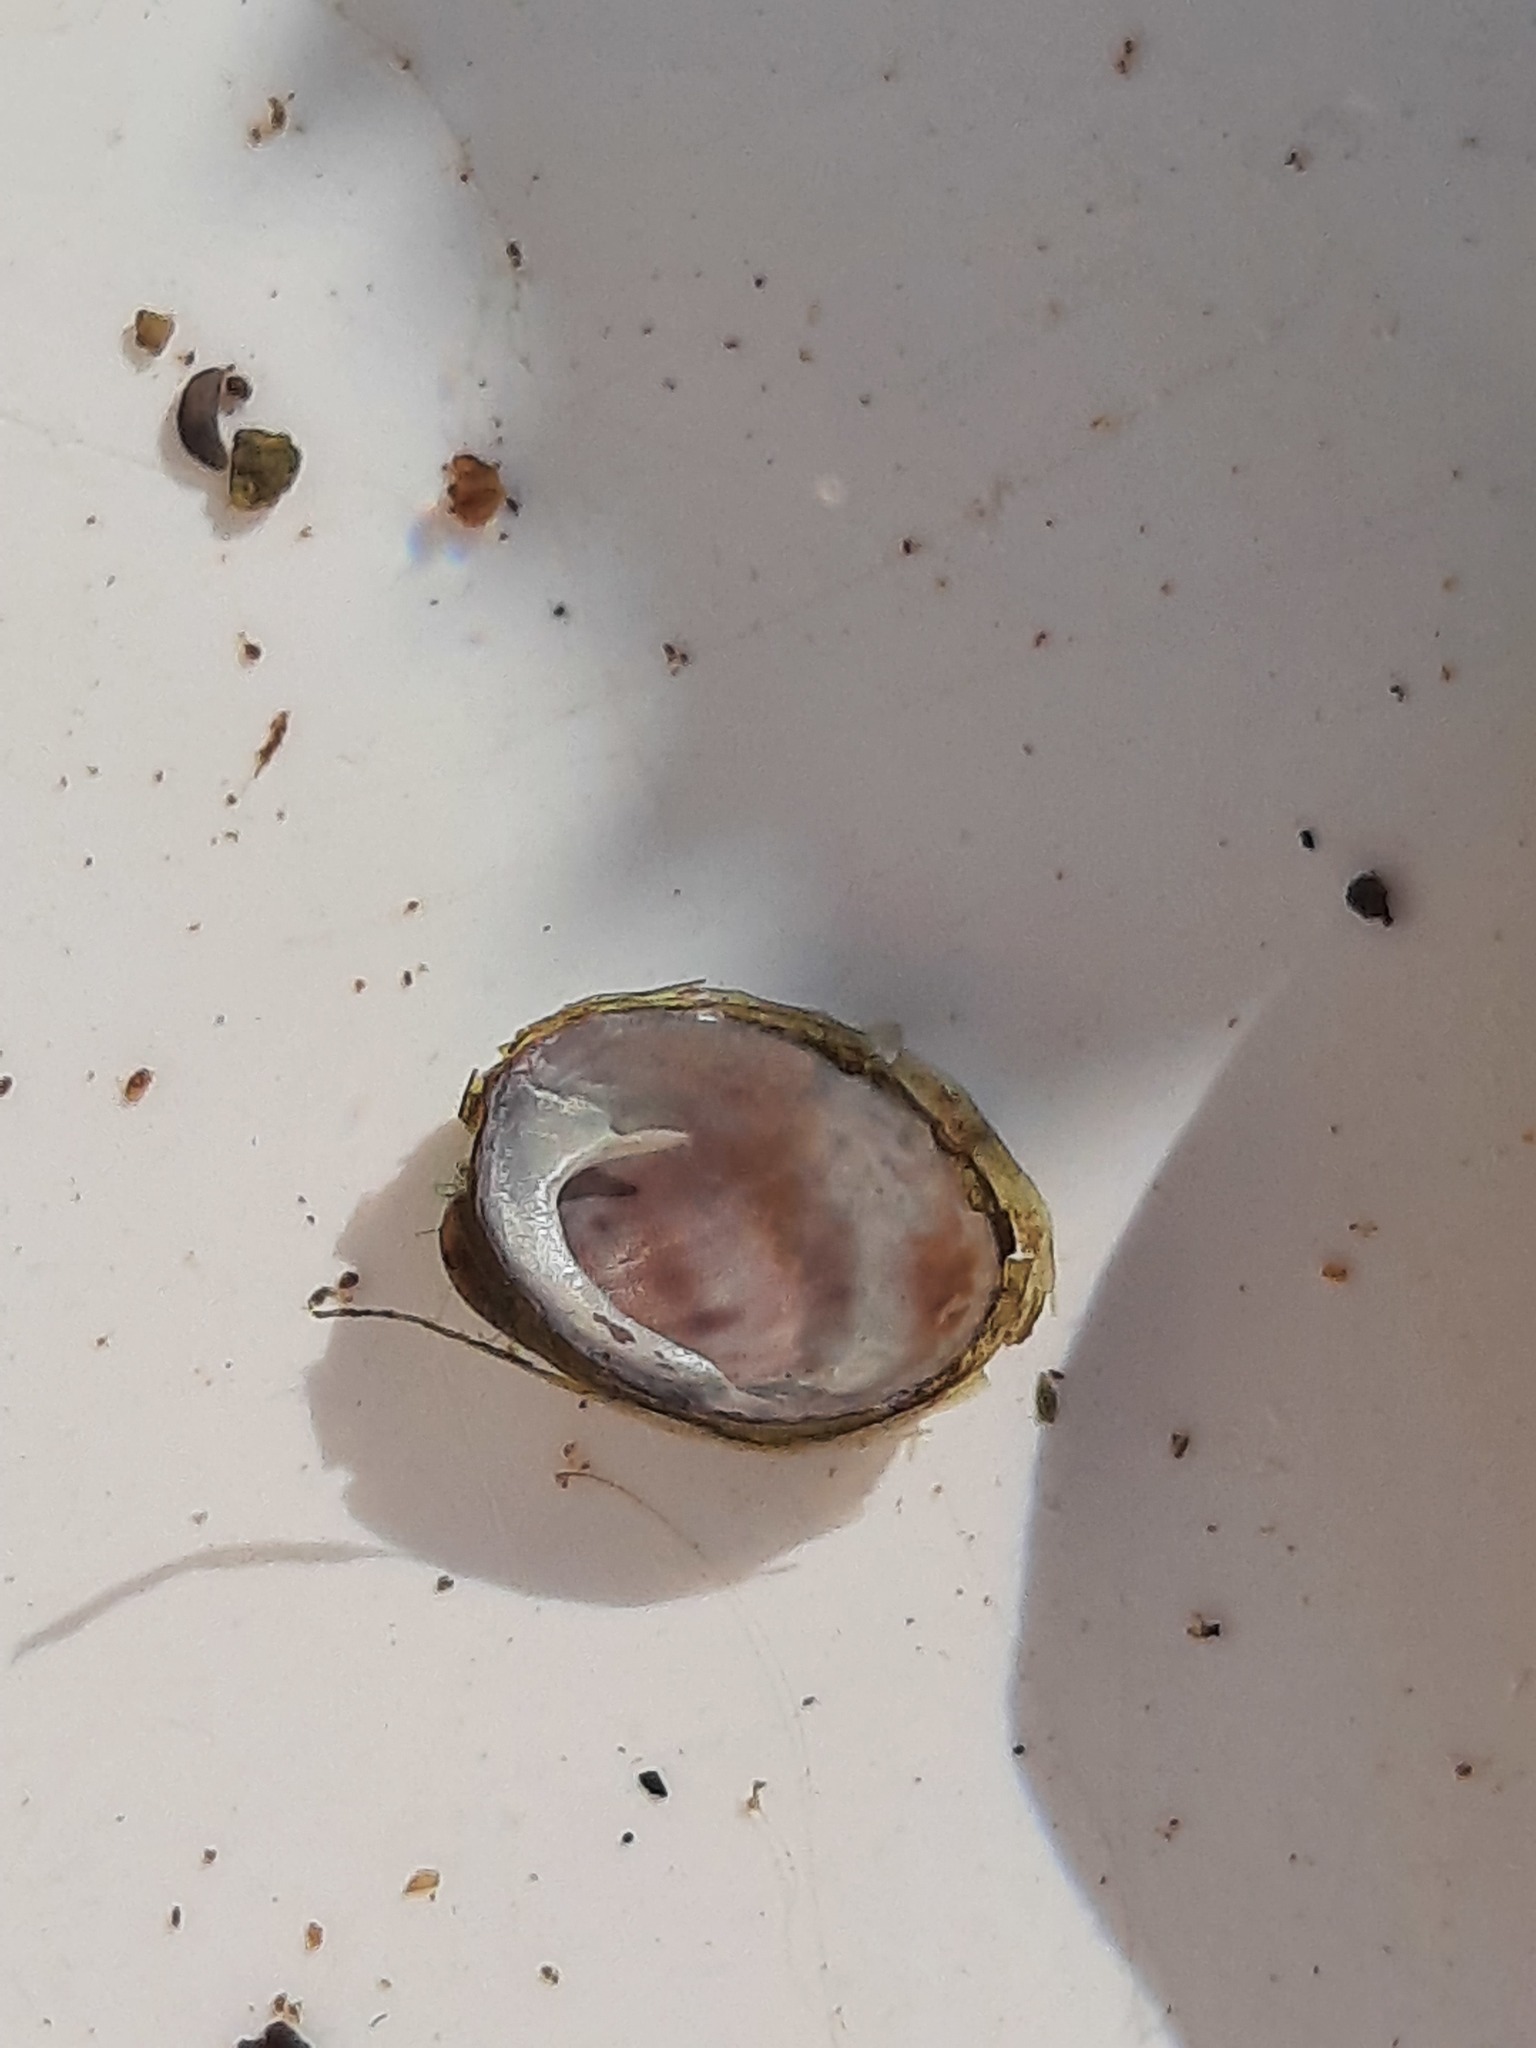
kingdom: Animalia
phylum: Mollusca
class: Gastropoda
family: Latiidae
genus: Latia
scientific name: Latia neritoides
